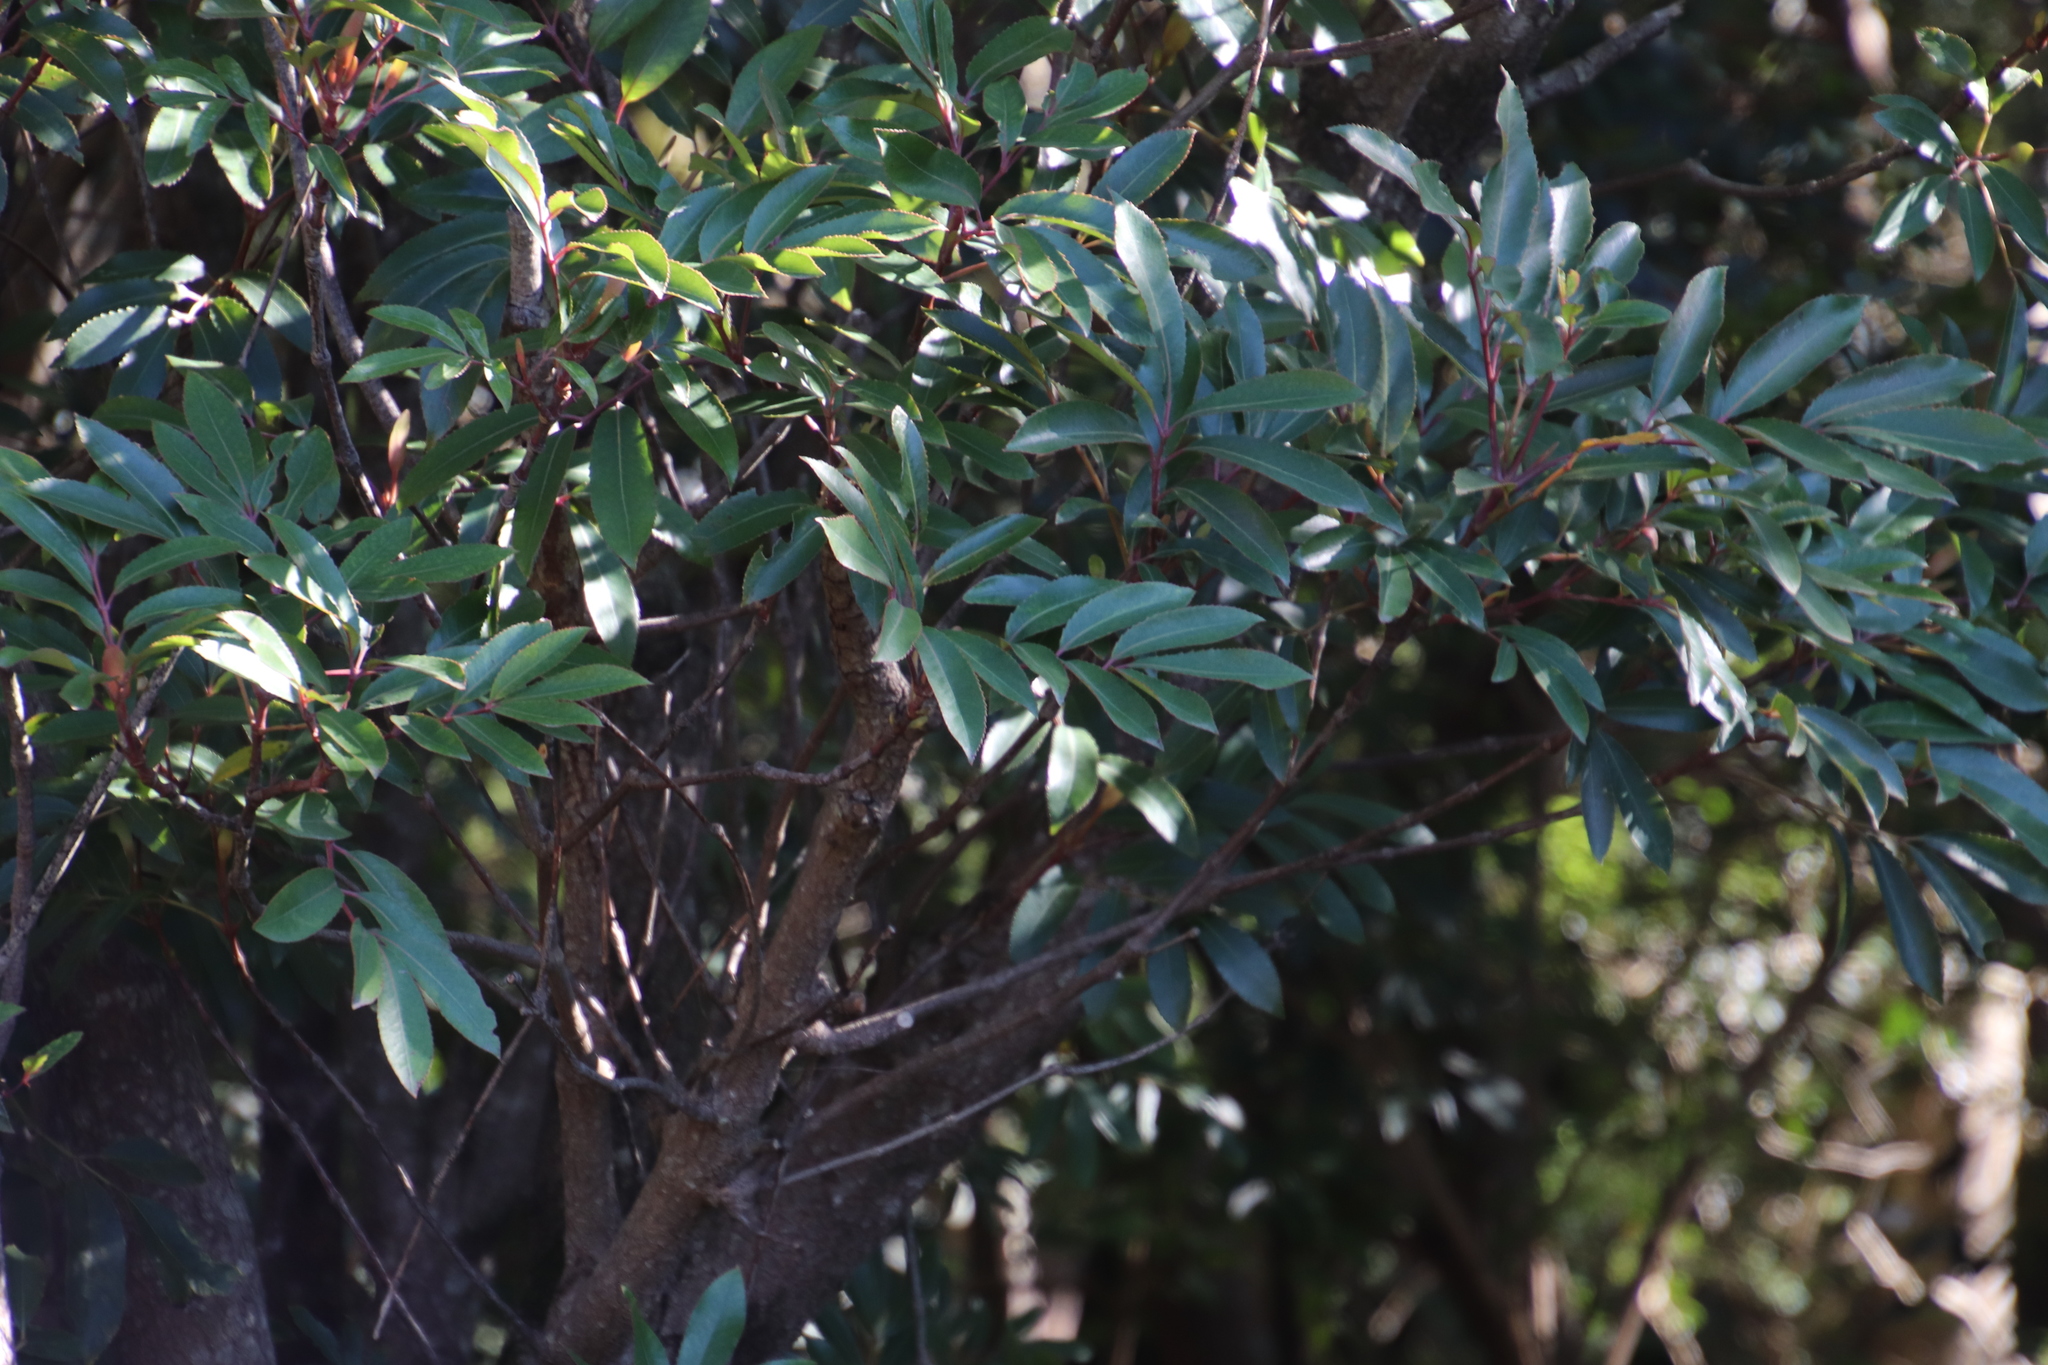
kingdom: Plantae
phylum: Tracheophyta
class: Magnoliopsida
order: Oxalidales
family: Cunoniaceae
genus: Cunonia
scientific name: Cunonia capensis
